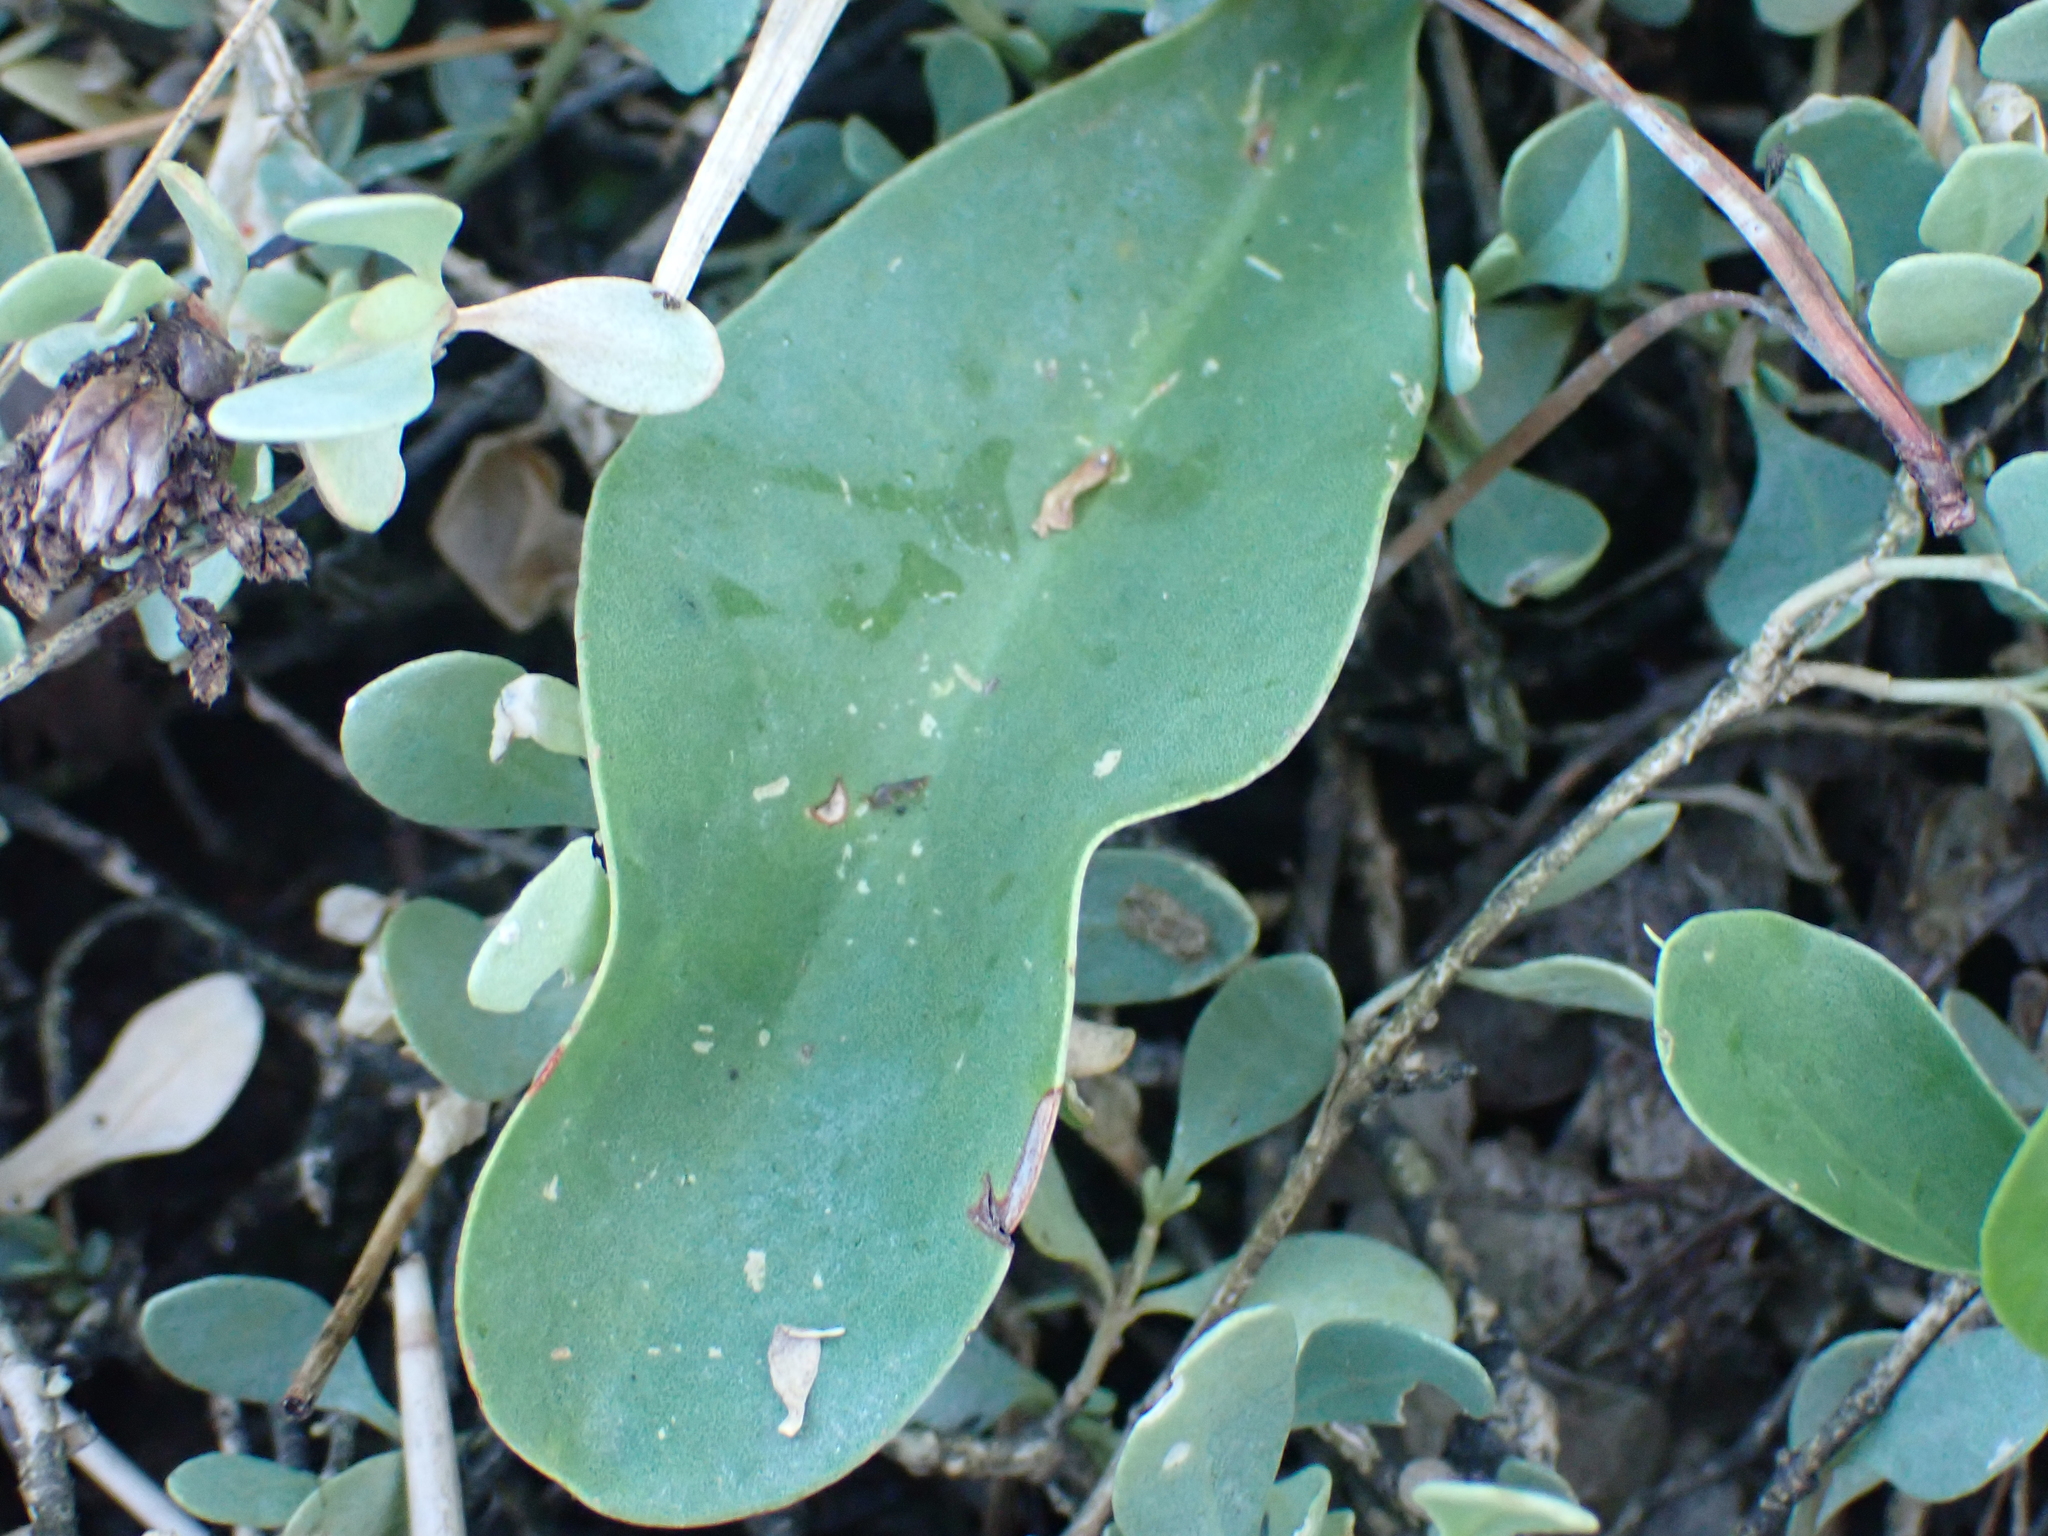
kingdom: Plantae
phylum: Tracheophyta
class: Magnoliopsida
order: Caryophyllales
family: Plumbaginaceae
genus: Limonium
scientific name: Limonium vulgare
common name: Common sea-lavender
